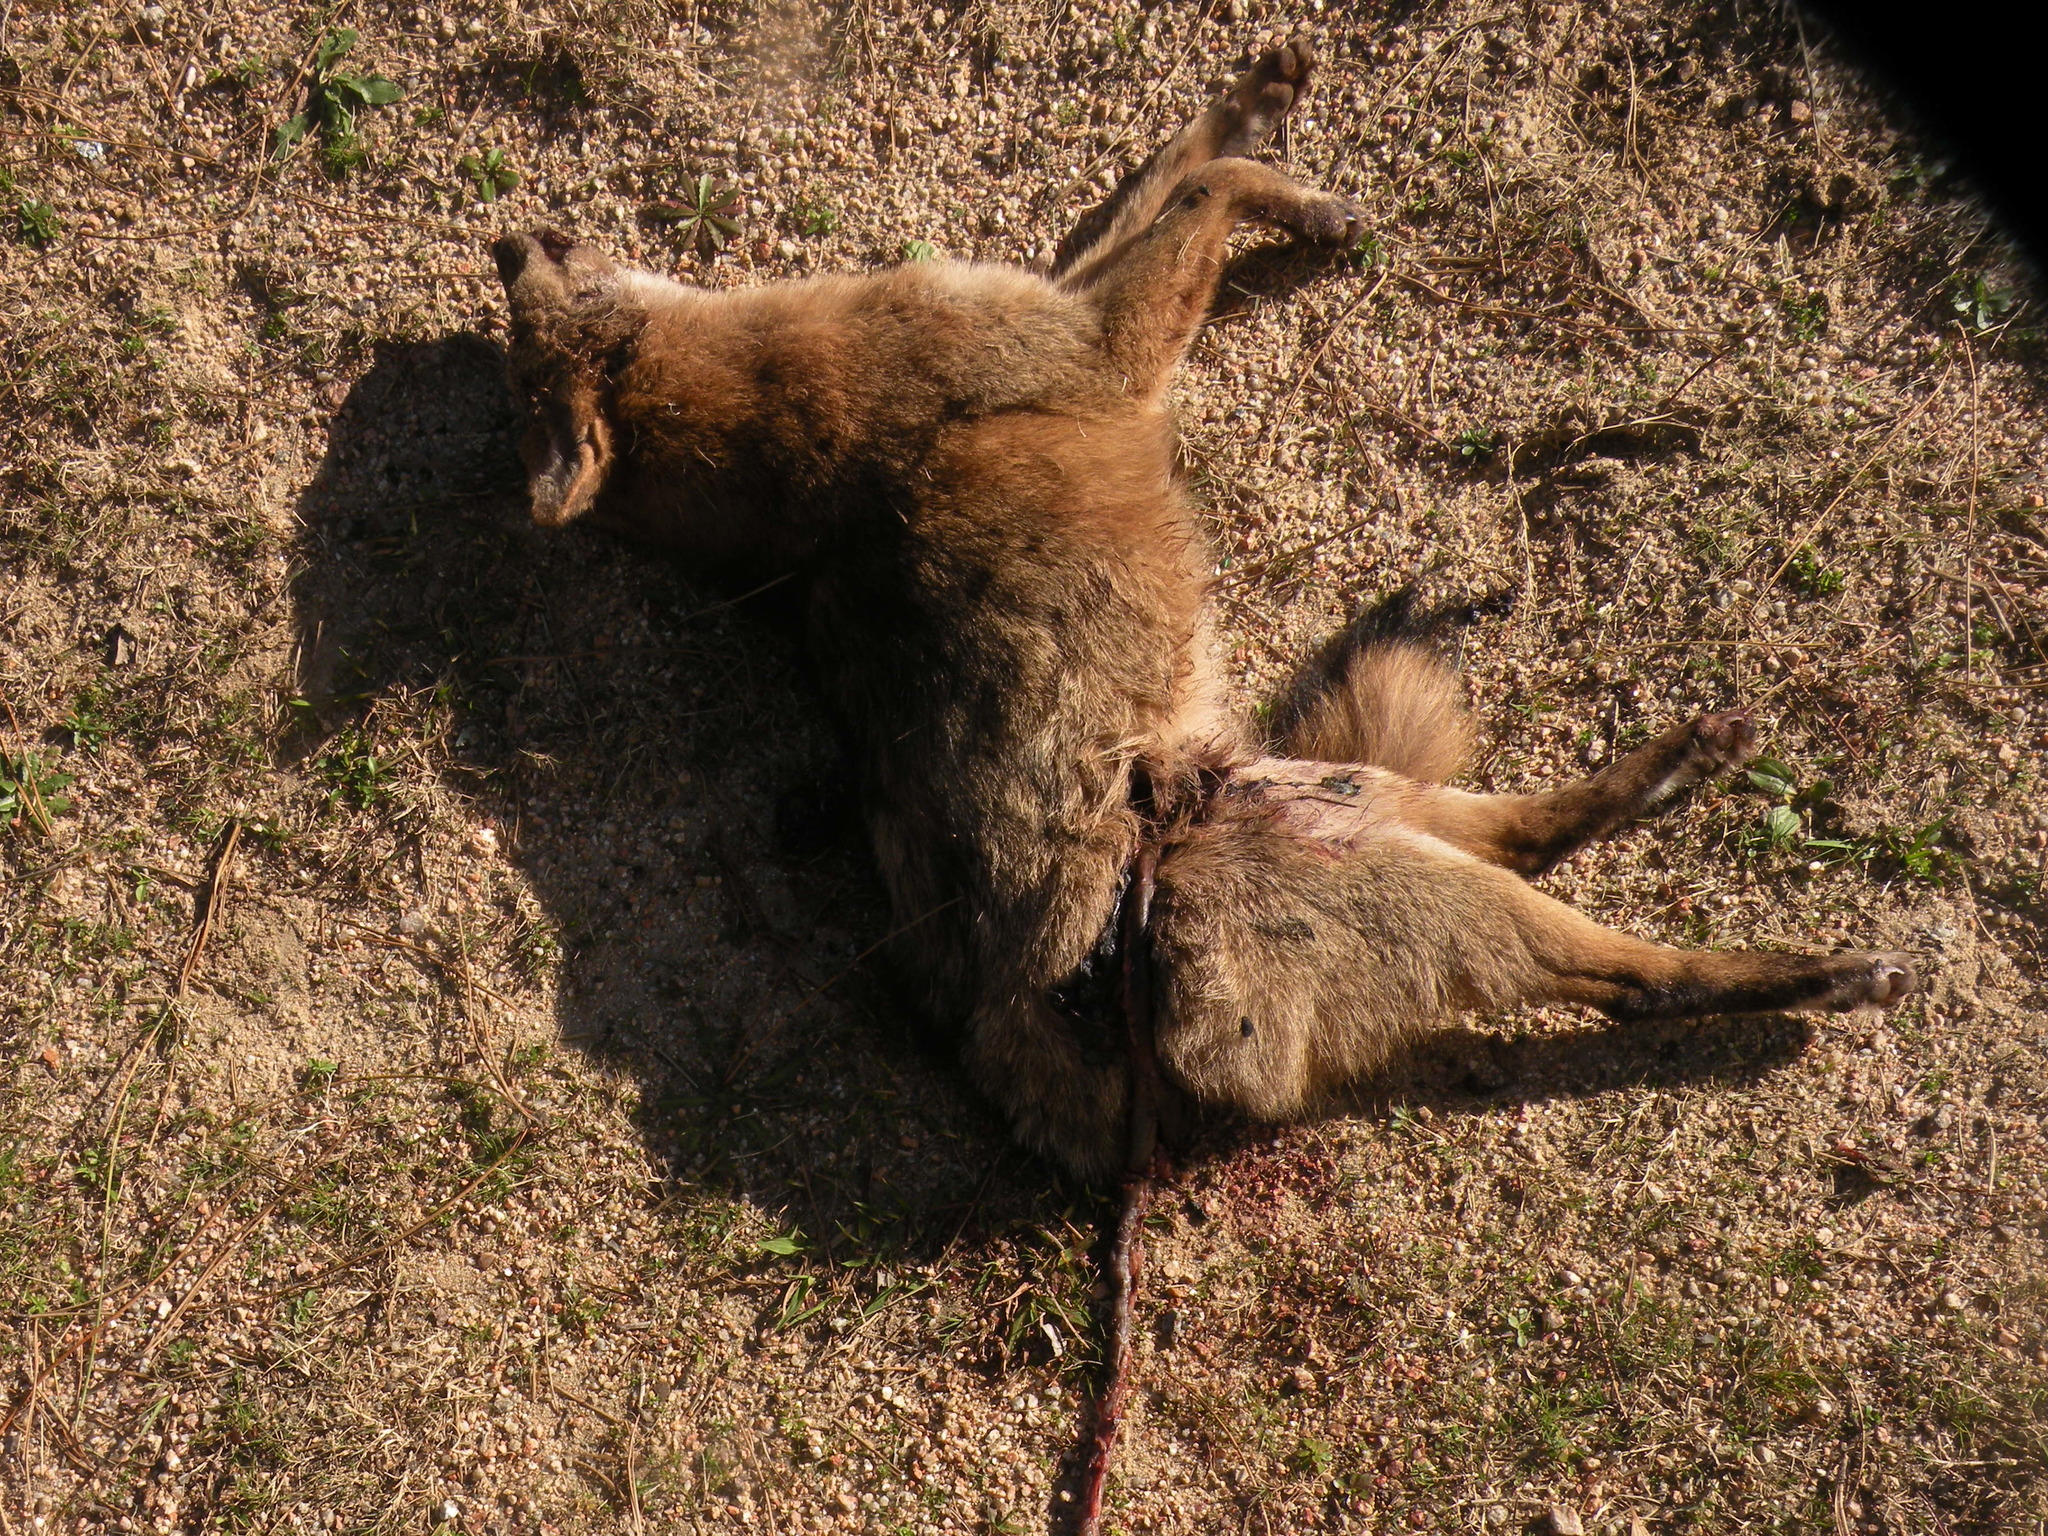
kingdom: Animalia
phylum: Chordata
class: Mammalia
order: Carnivora
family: Canidae
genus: Cerdocyon
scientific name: Cerdocyon thous
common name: Crab-eating fox
